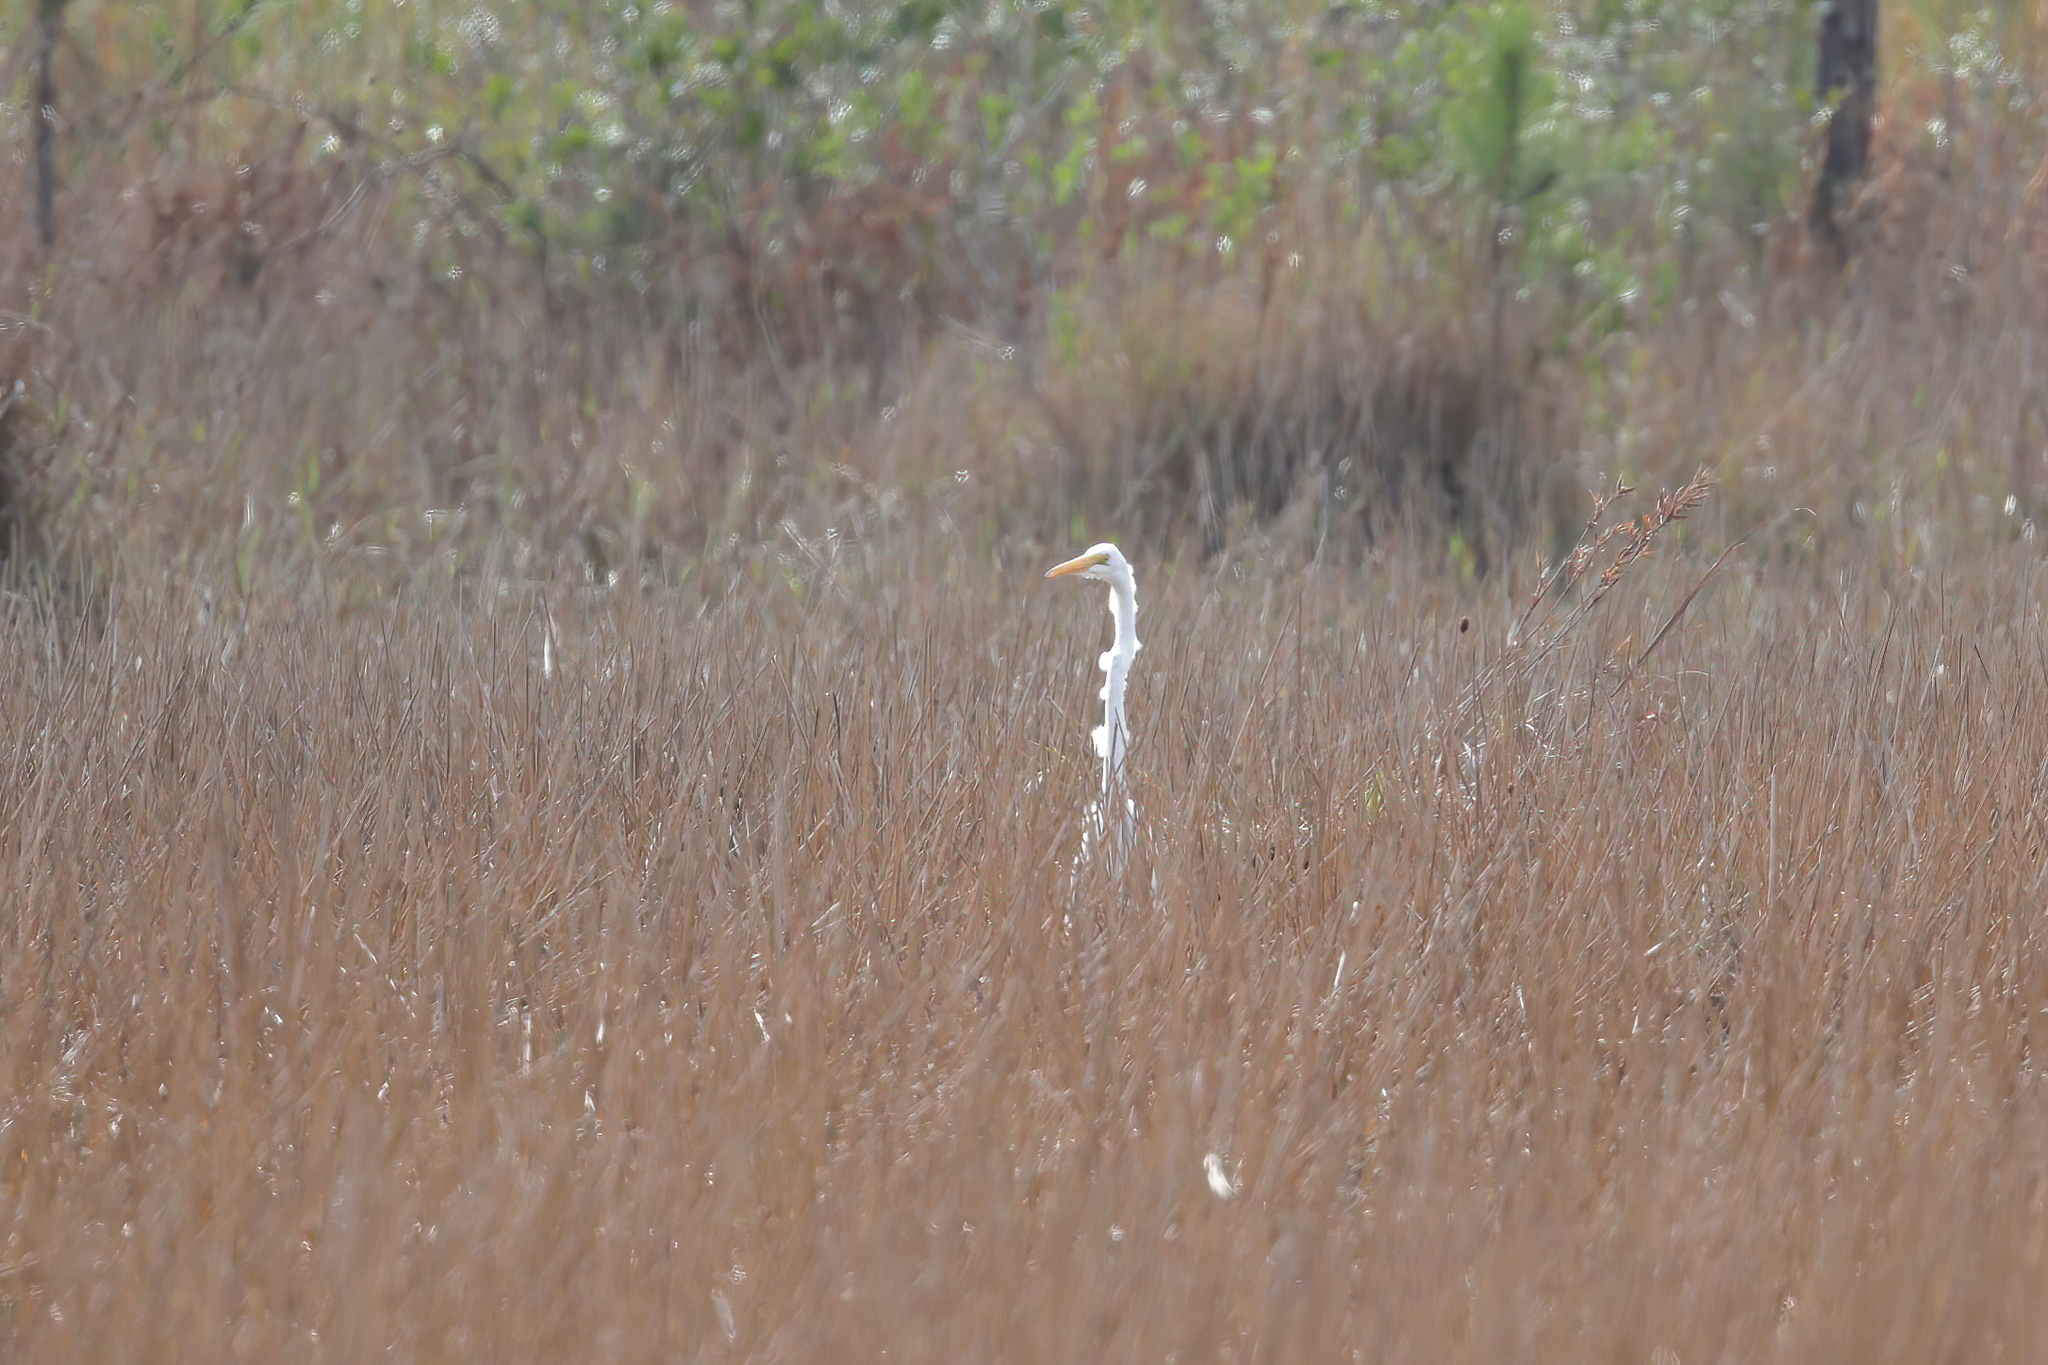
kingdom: Animalia
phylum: Chordata
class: Aves
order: Pelecaniformes
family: Ardeidae
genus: Ardea
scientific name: Ardea alba
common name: Great egret
